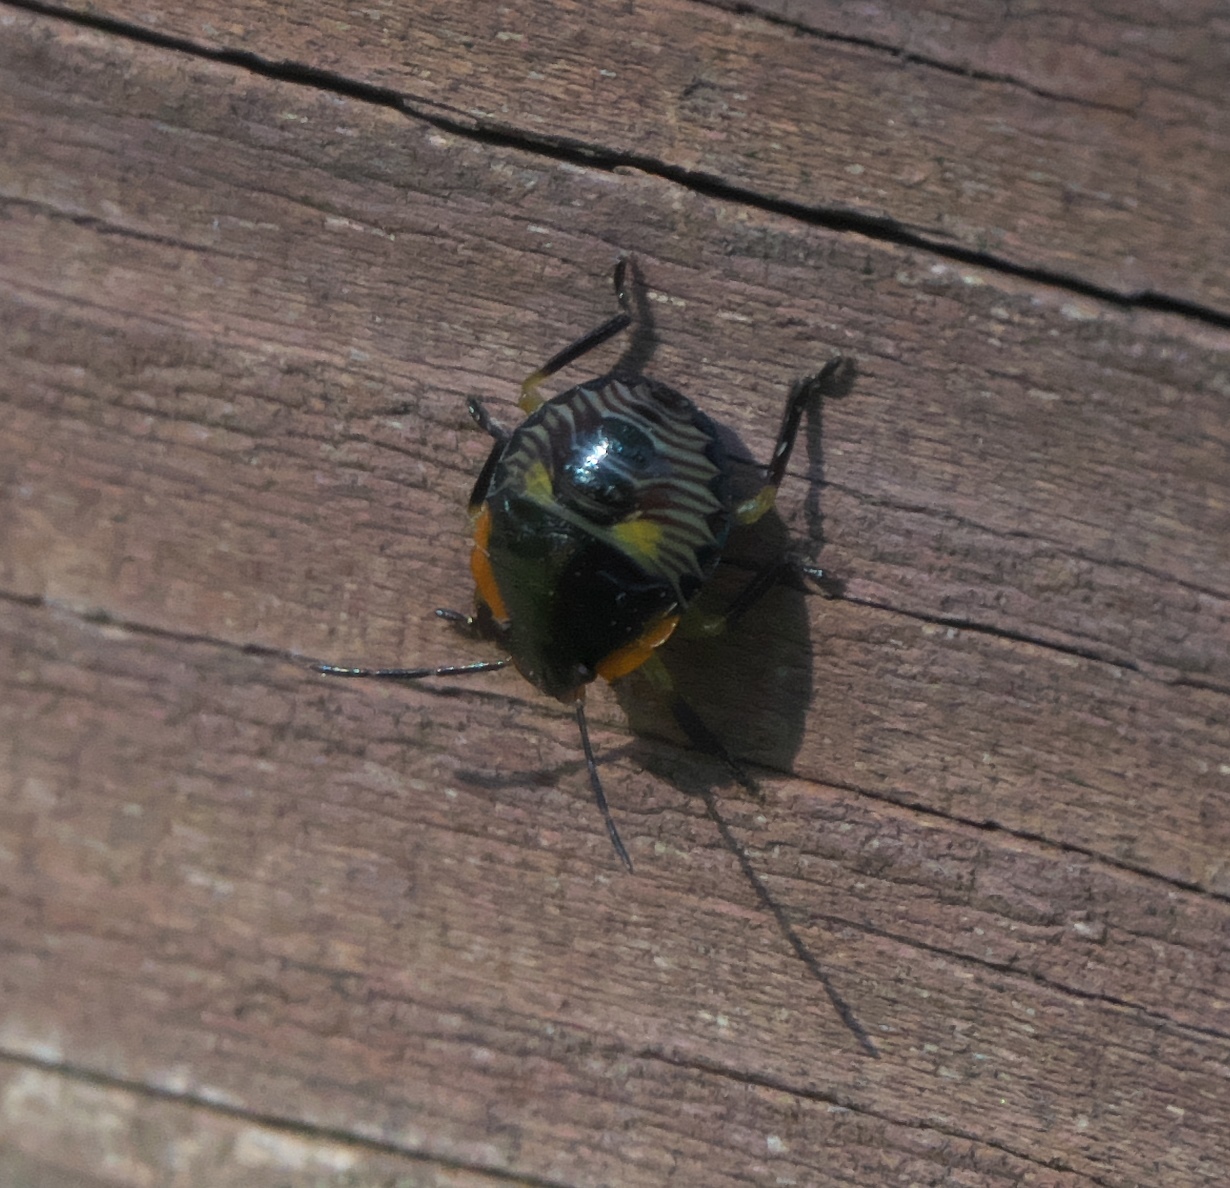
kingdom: Animalia
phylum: Arthropoda
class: Insecta
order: Hemiptera
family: Pentatomidae
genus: Chinavia
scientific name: Chinavia hilaris
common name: Green stink bug
